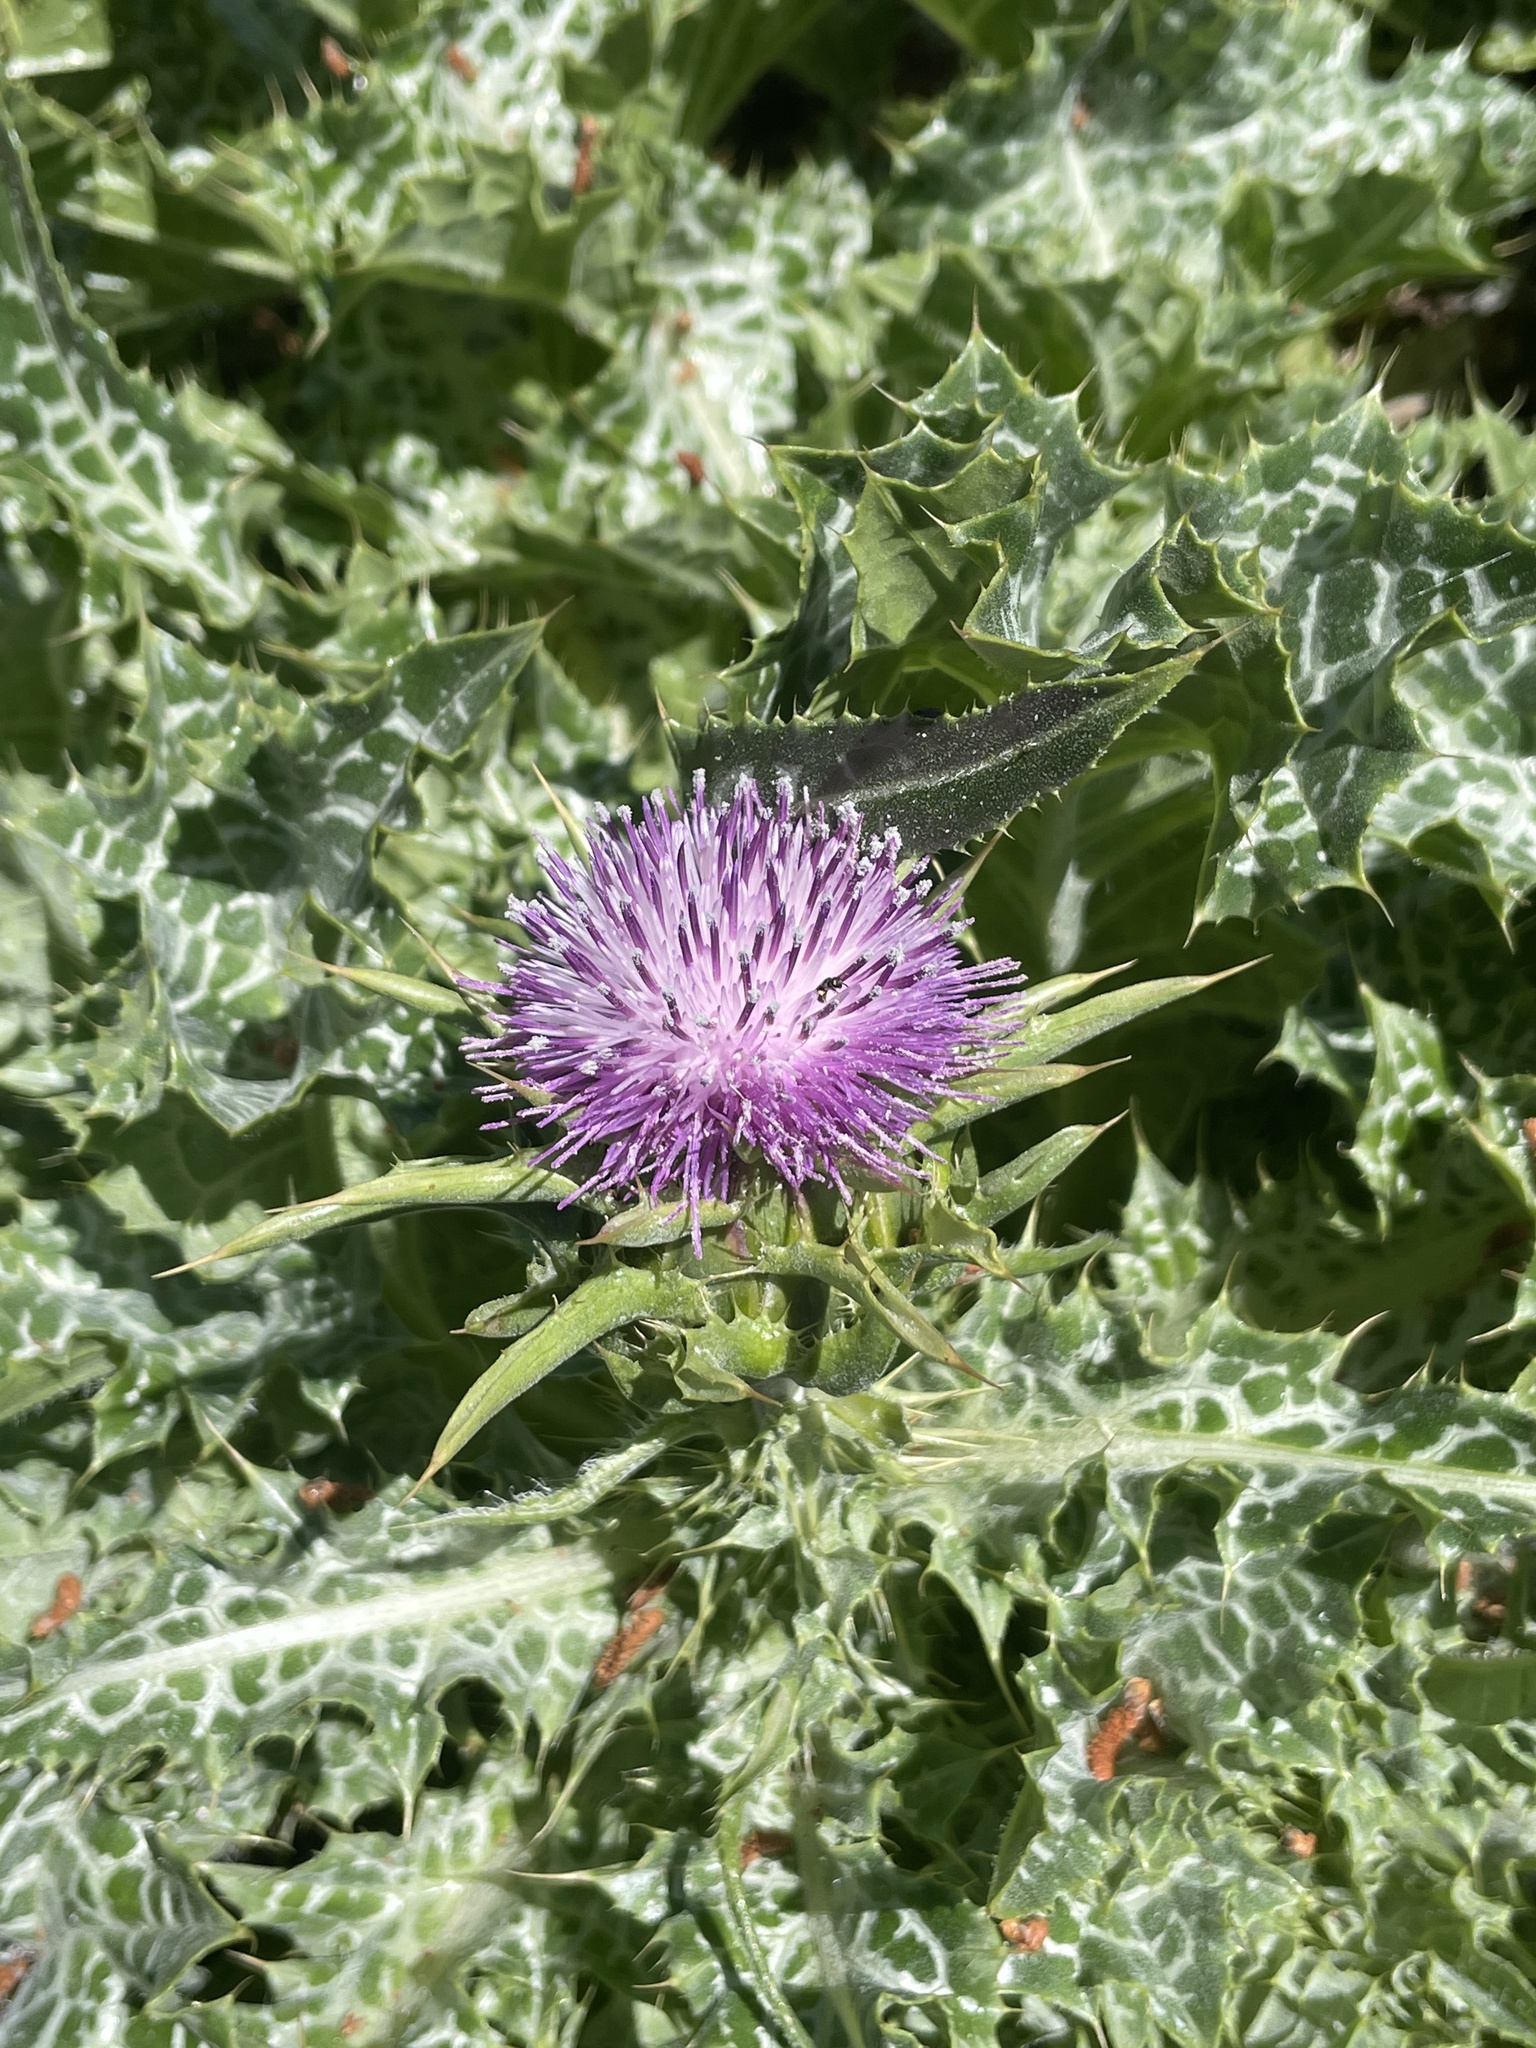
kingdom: Plantae
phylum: Tracheophyta
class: Magnoliopsida
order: Asterales
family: Asteraceae
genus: Silybum
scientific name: Silybum marianum
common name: Milk thistle
